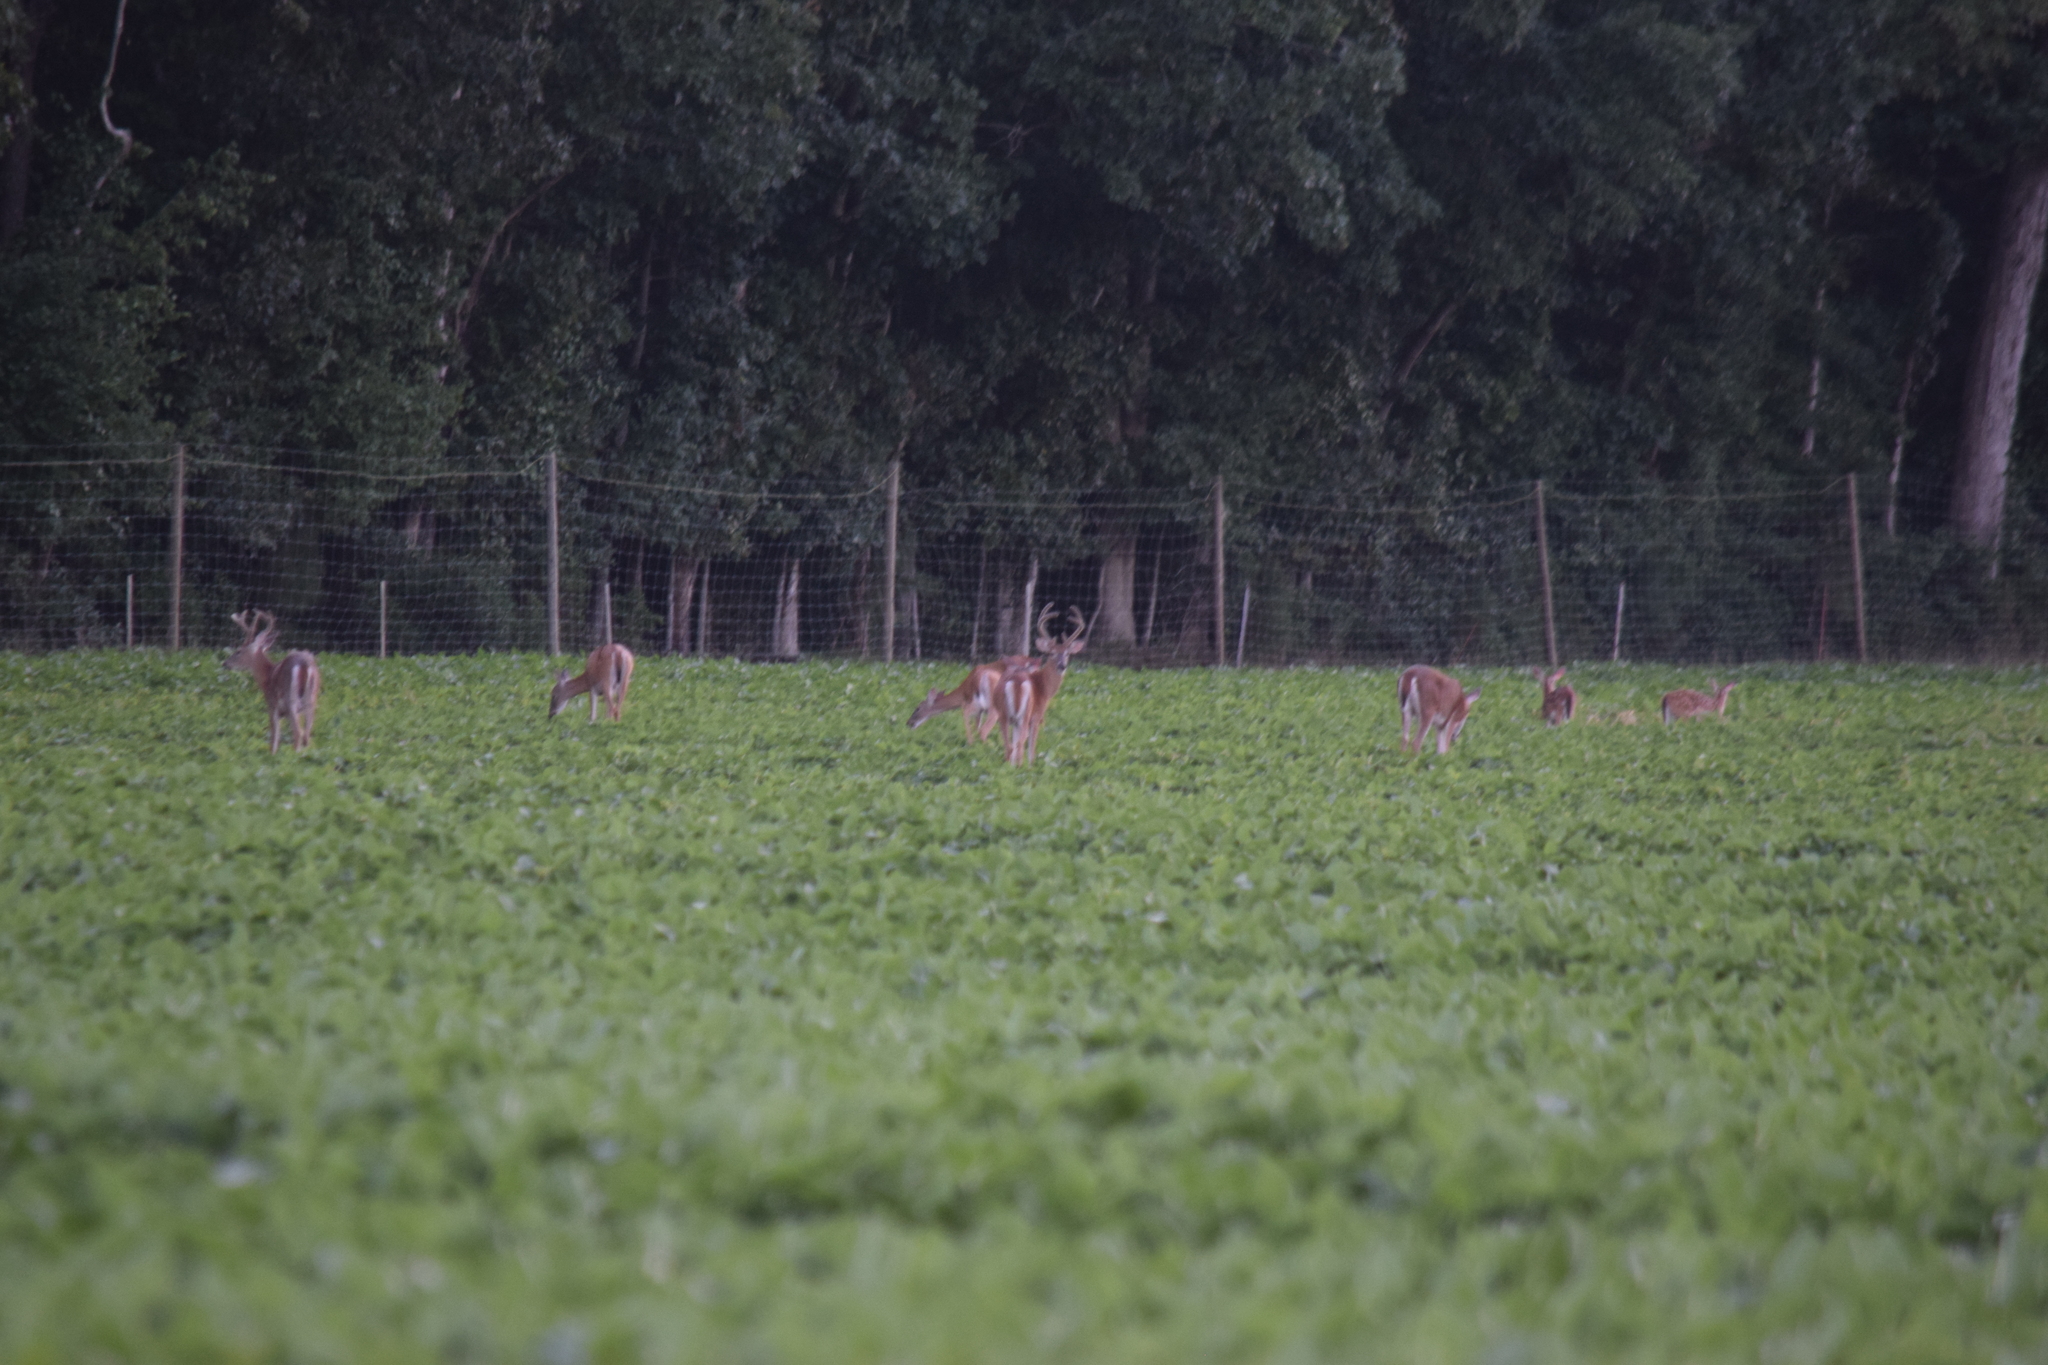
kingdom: Animalia
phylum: Chordata
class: Mammalia
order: Artiodactyla
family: Cervidae
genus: Odocoileus
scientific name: Odocoileus virginianus
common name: White-tailed deer
